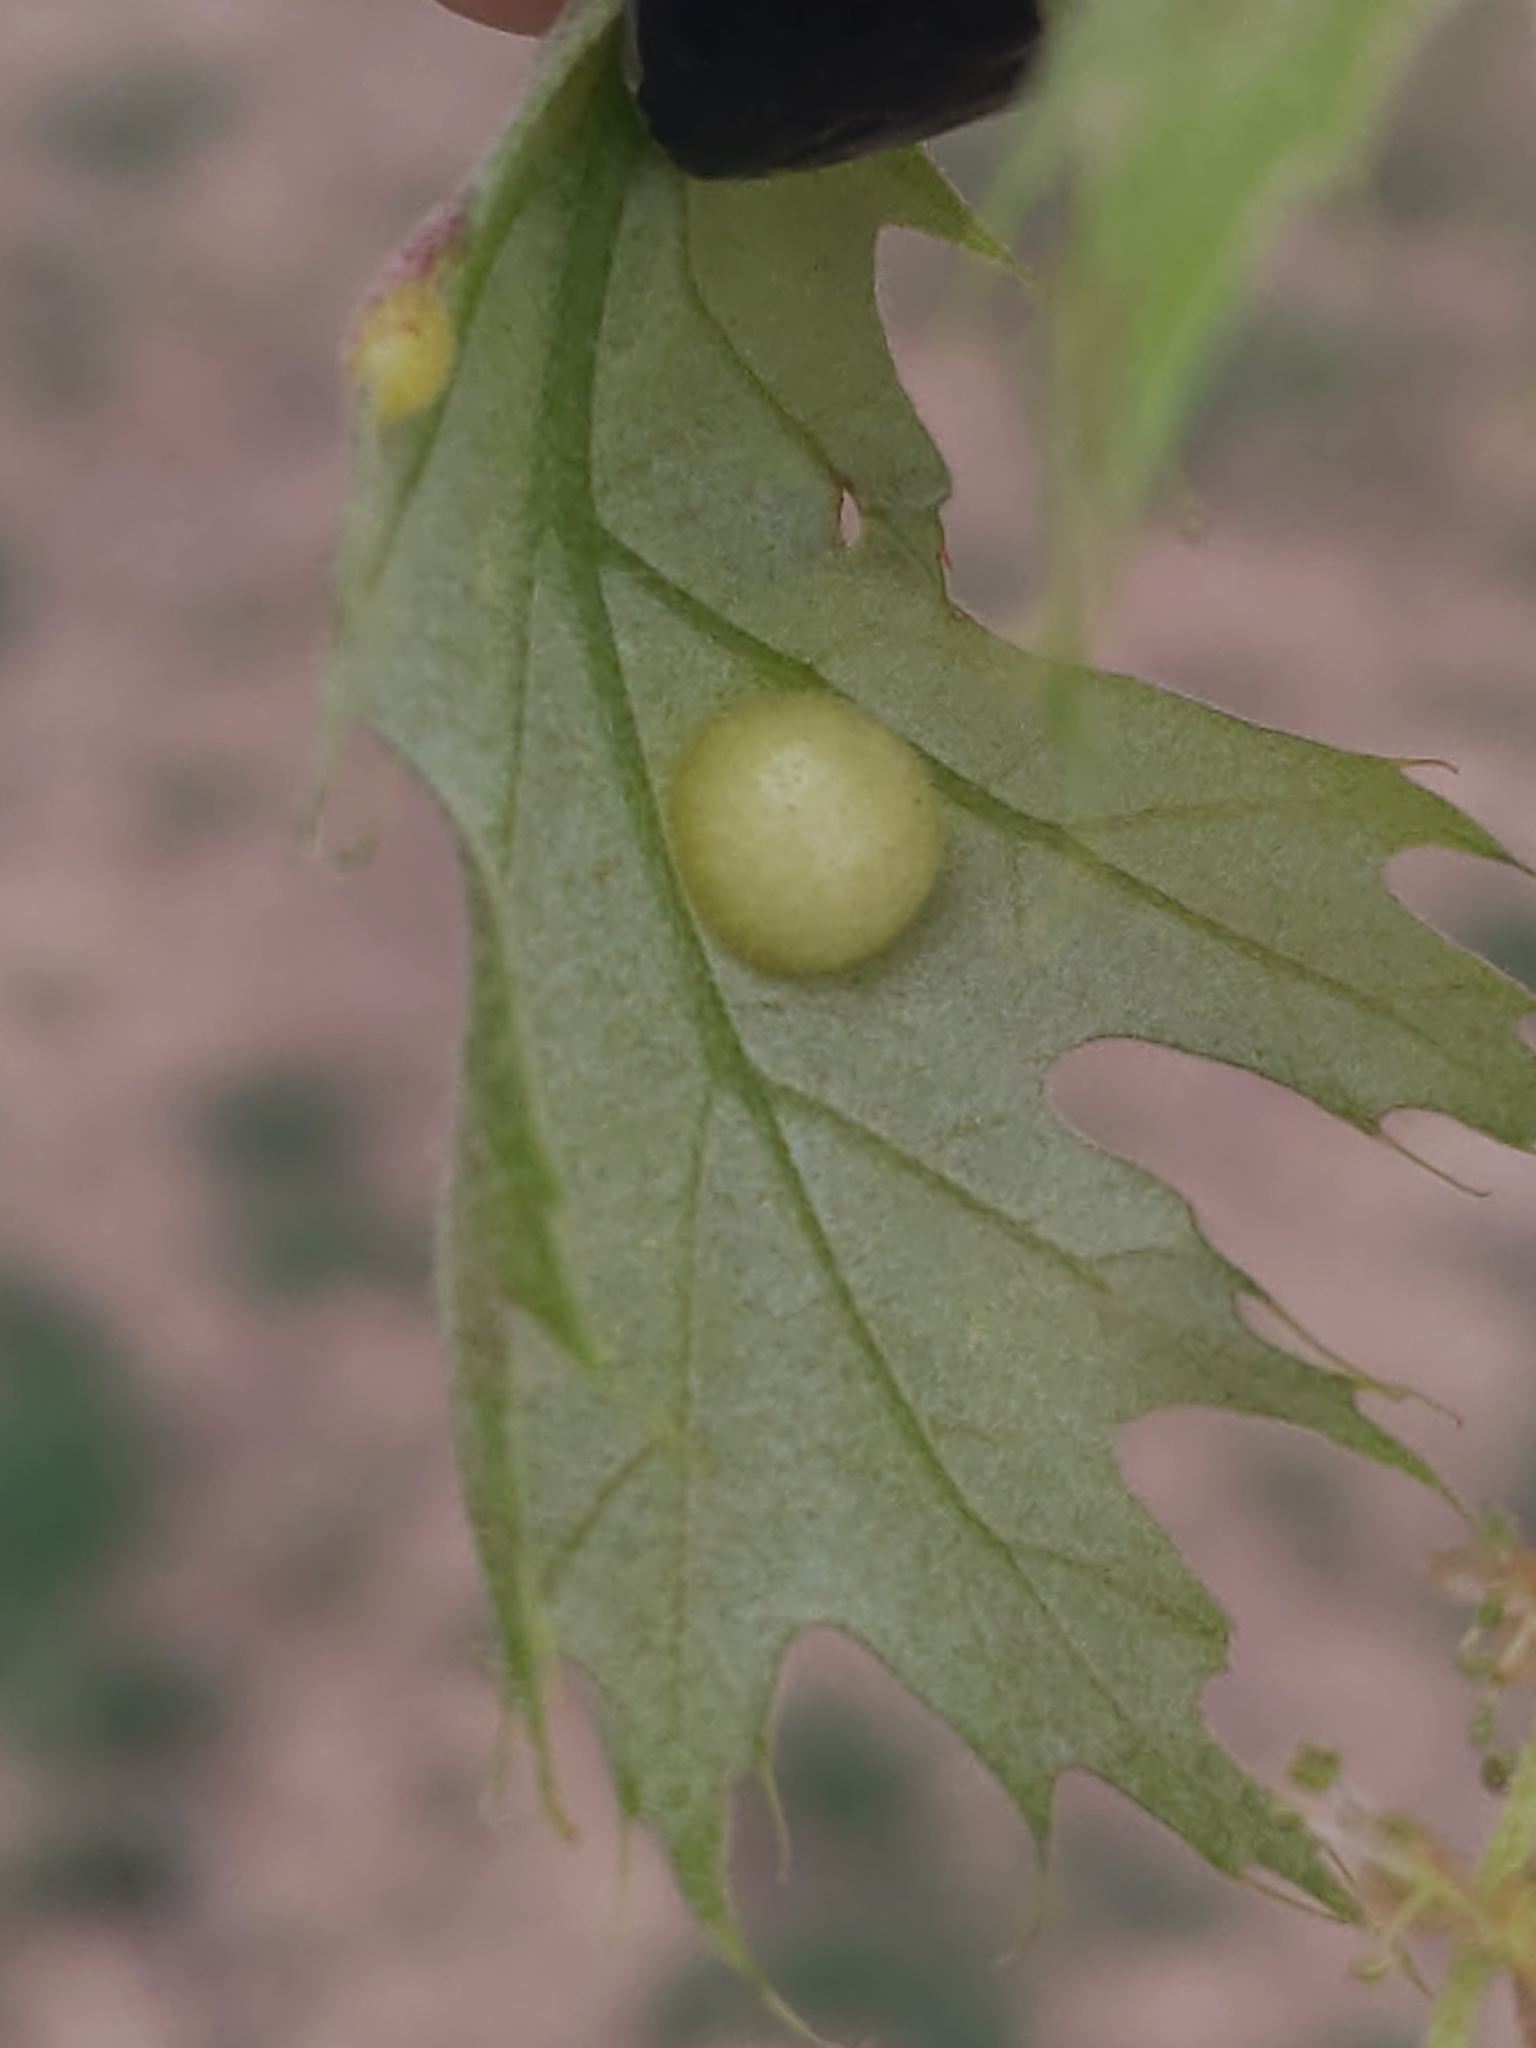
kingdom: Animalia
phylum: Arthropoda
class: Insecta
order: Hymenoptera
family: Cynipidae
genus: Amphibolips
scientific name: Amphibolips
